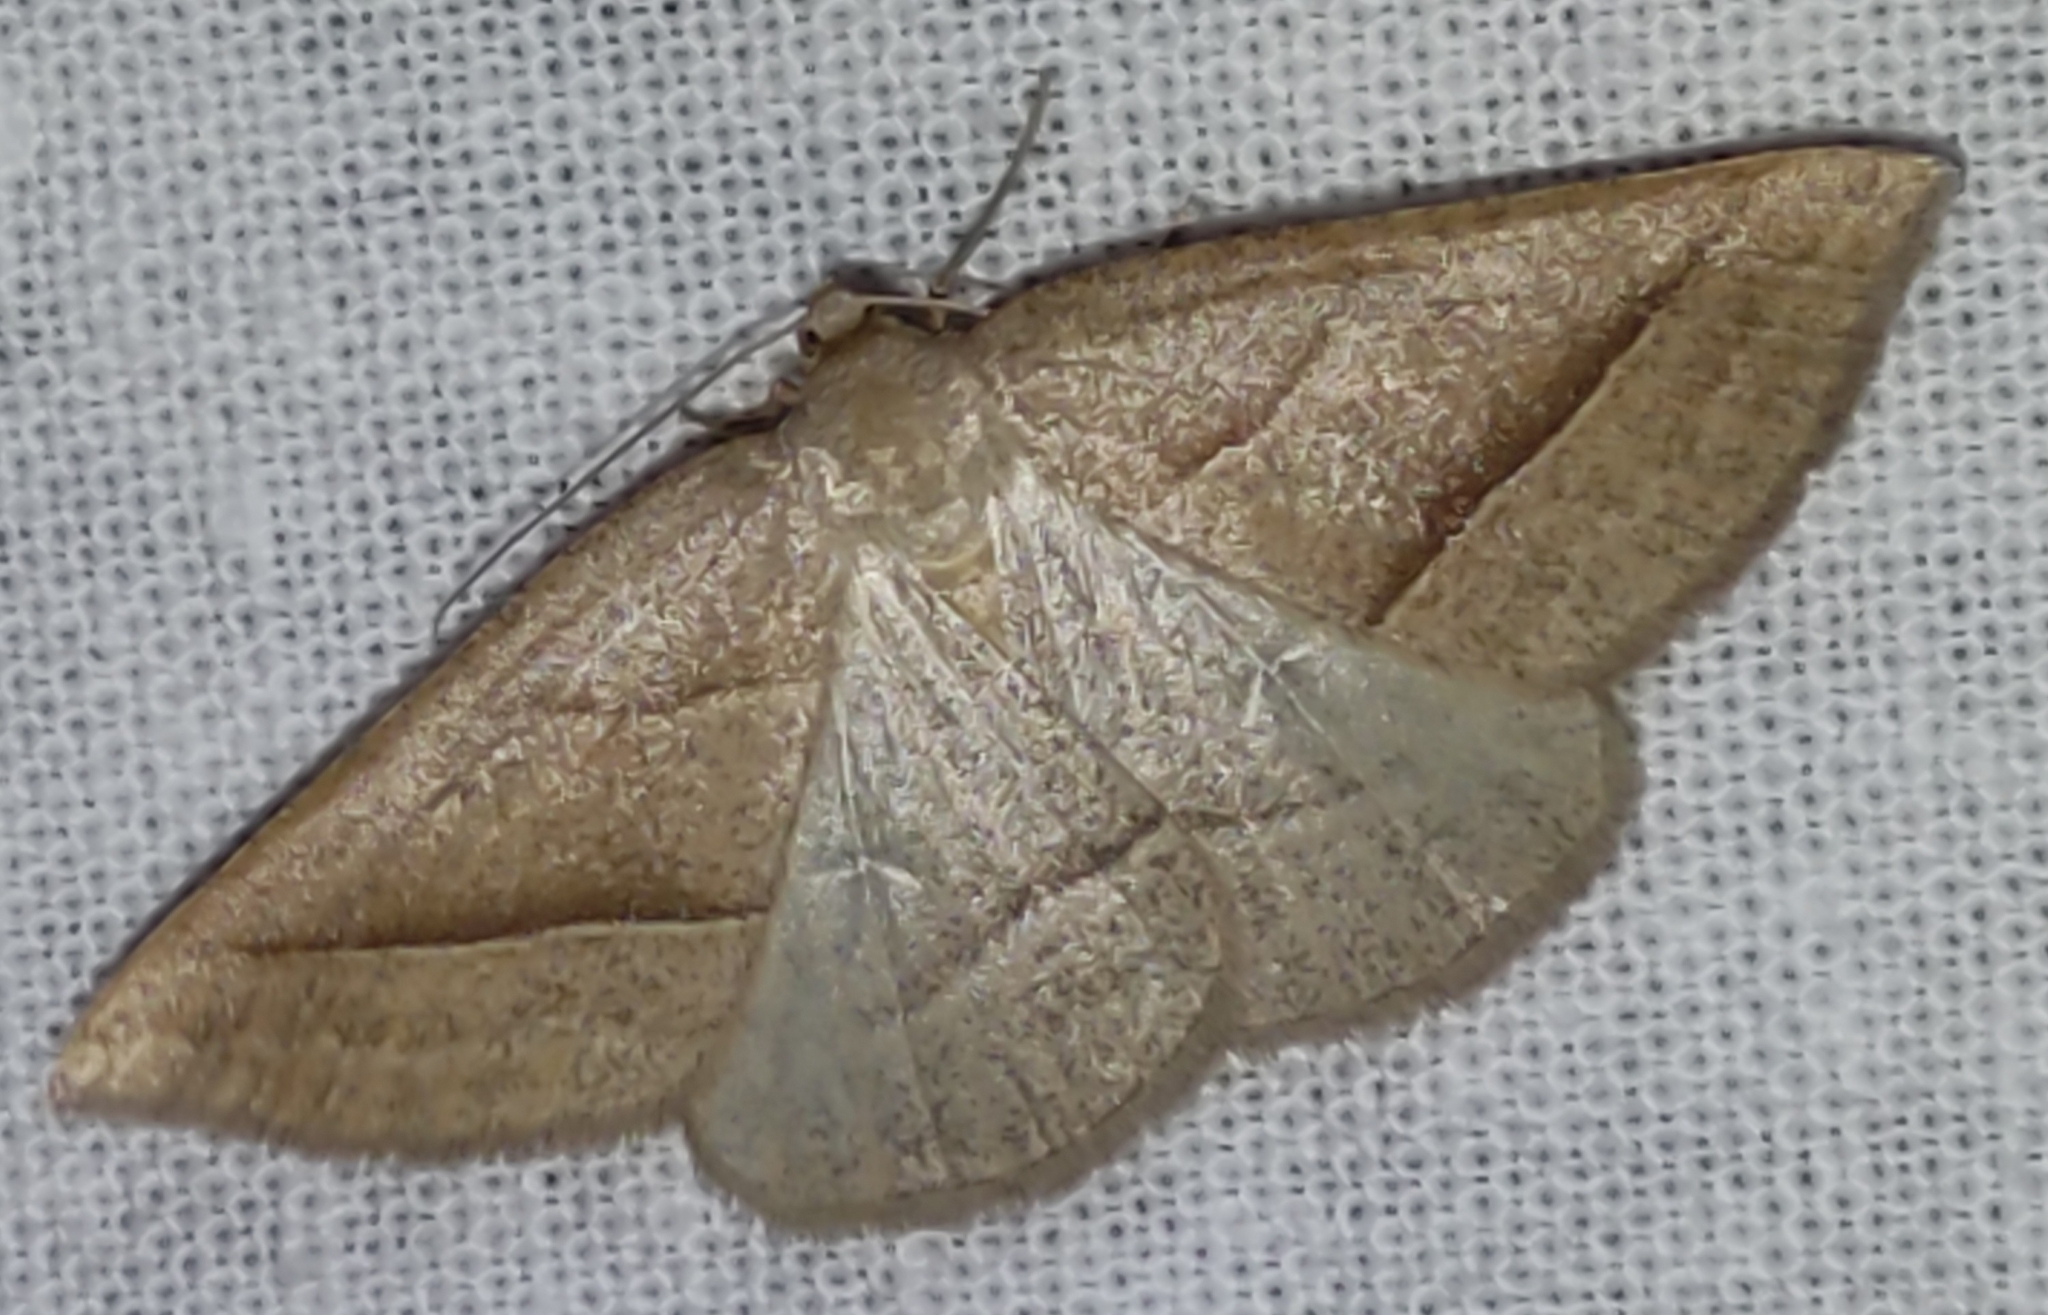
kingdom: Animalia
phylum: Arthropoda
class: Insecta
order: Lepidoptera
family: Pterophoridae
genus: Pterophorus
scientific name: Pterophorus Petrophora chlorosata
